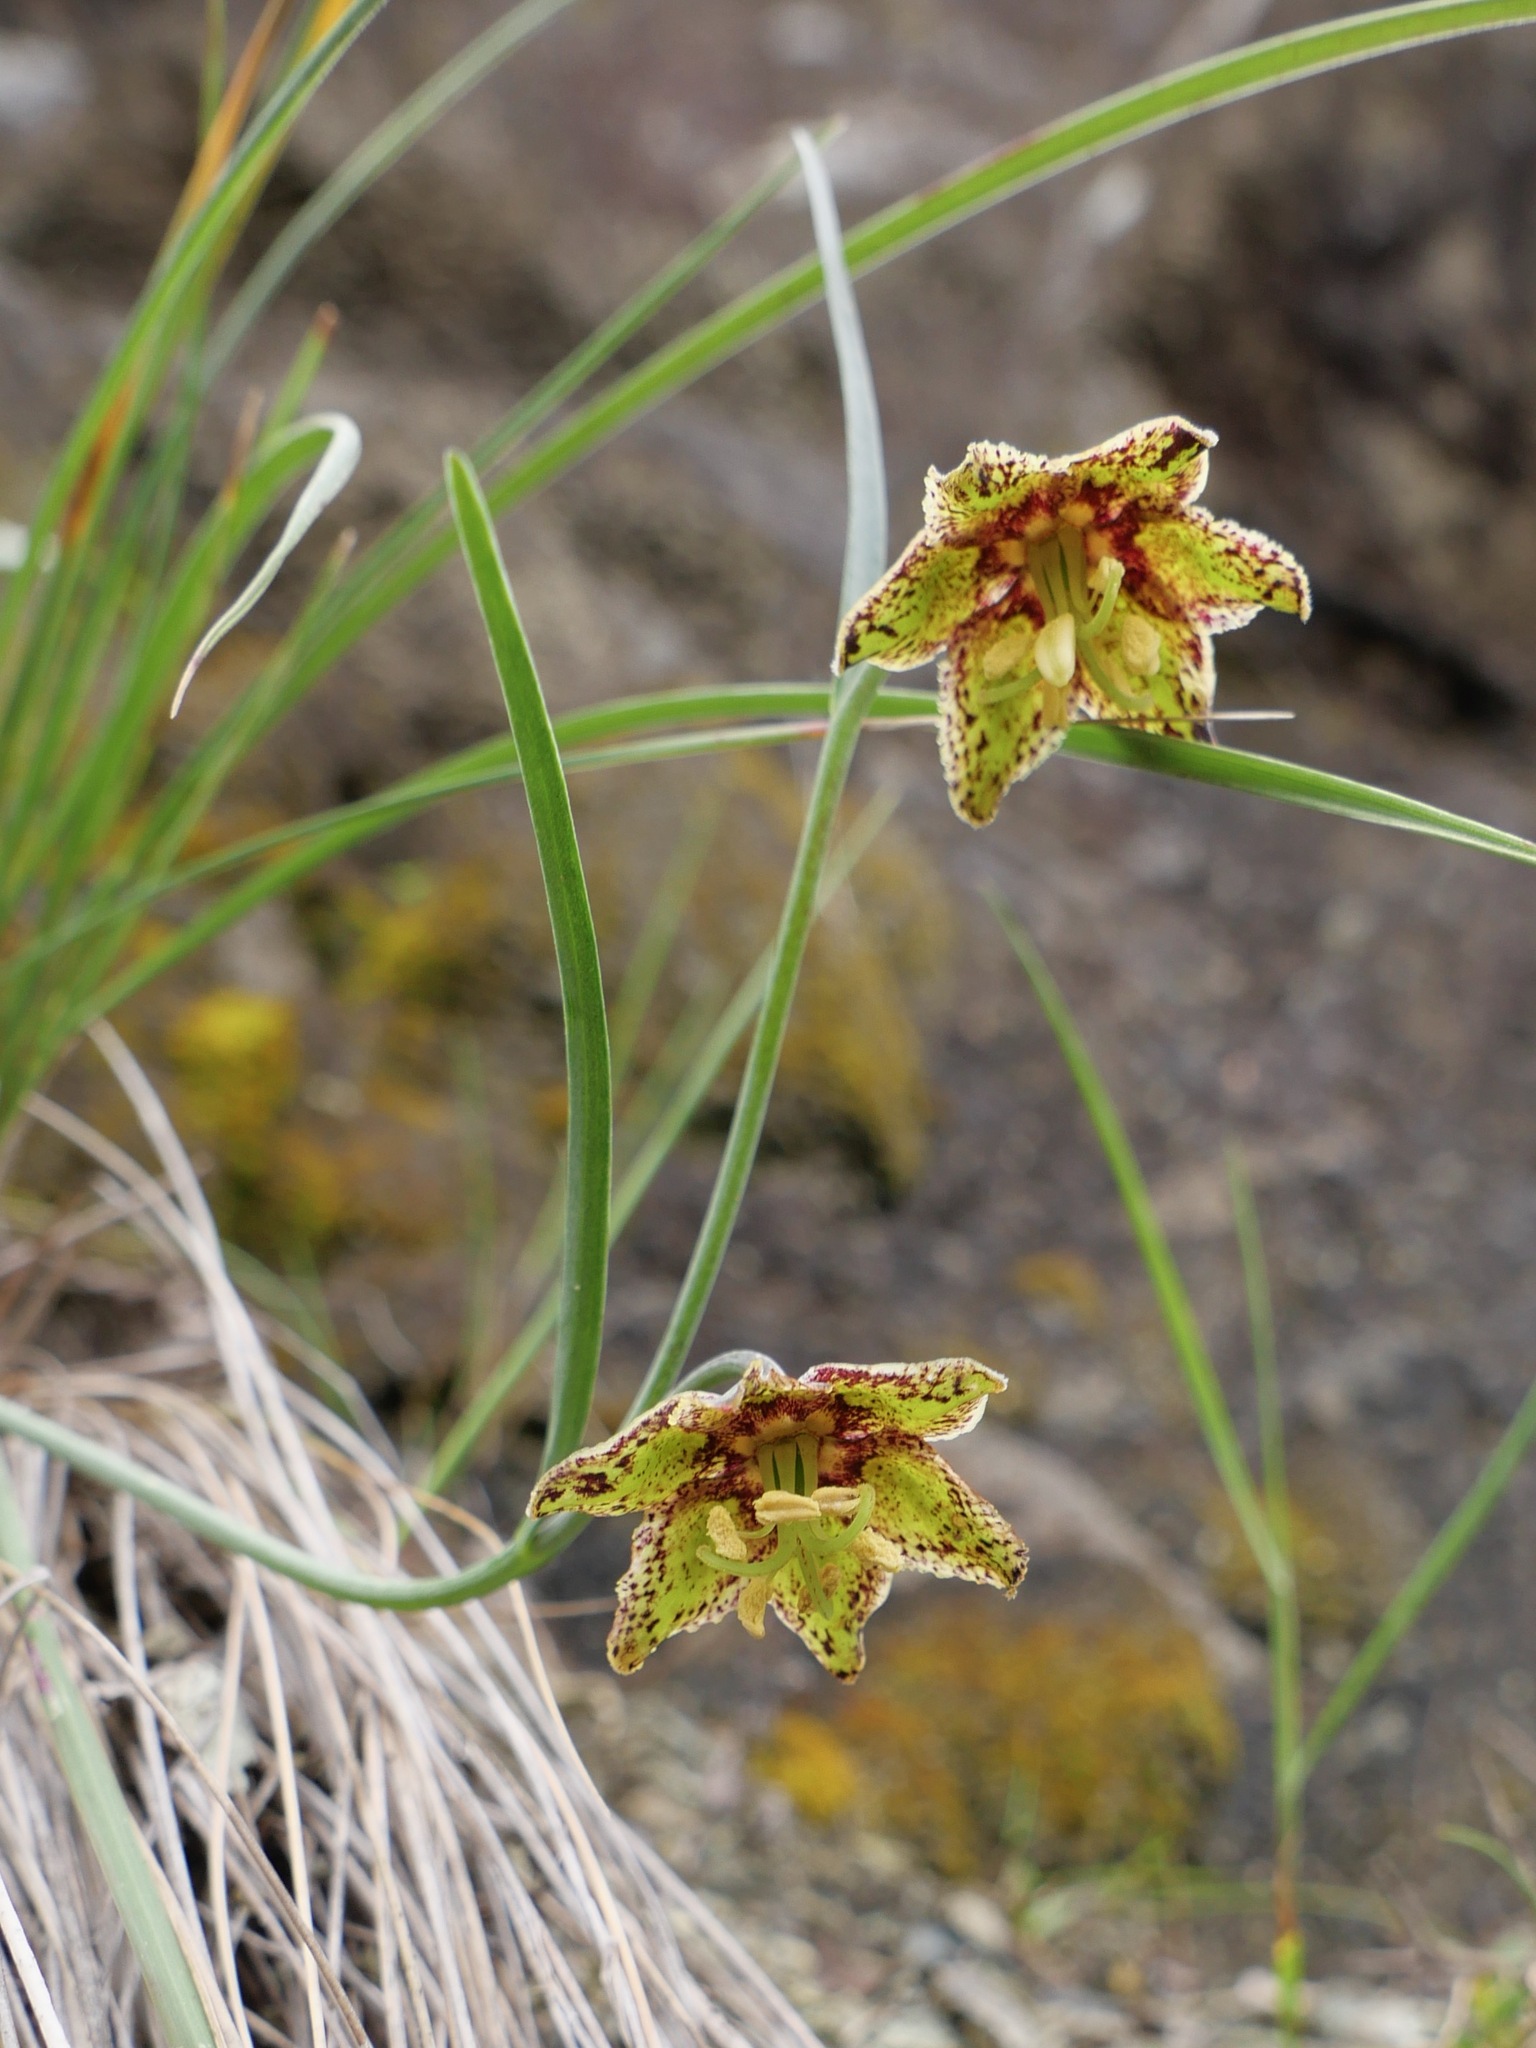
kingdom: Plantae
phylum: Tracheophyta
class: Liliopsida
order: Liliales
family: Liliaceae
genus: Fritillaria
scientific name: Fritillaria ojaiensis
